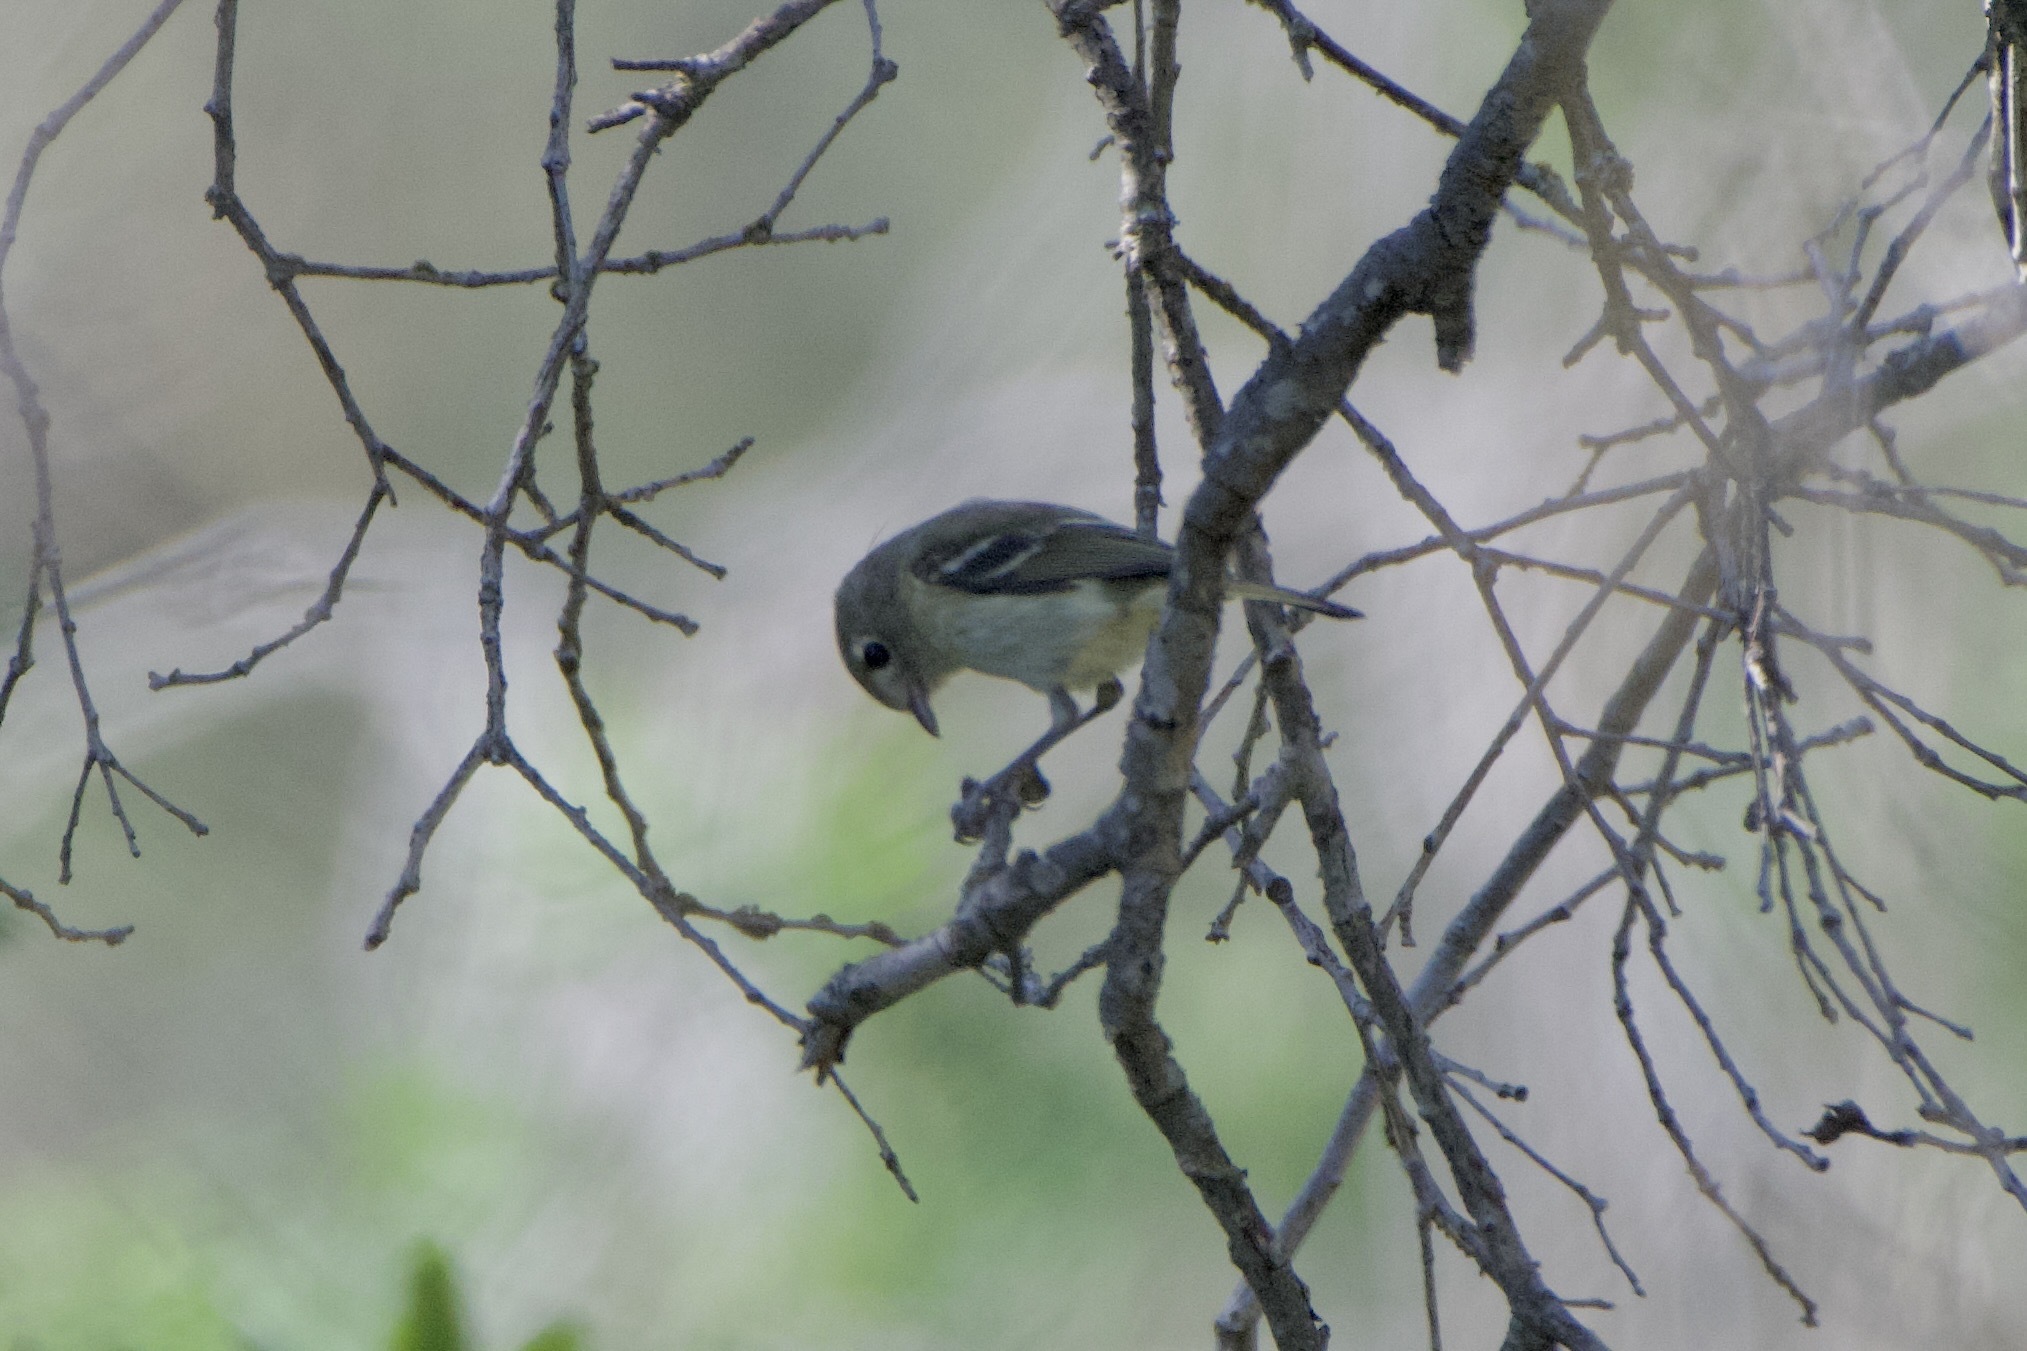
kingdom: Animalia
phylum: Chordata
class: Aves
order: Passeriformes
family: Vireonidae
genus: Vireo
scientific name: Vireo huttoni
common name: Hutton's vireo
